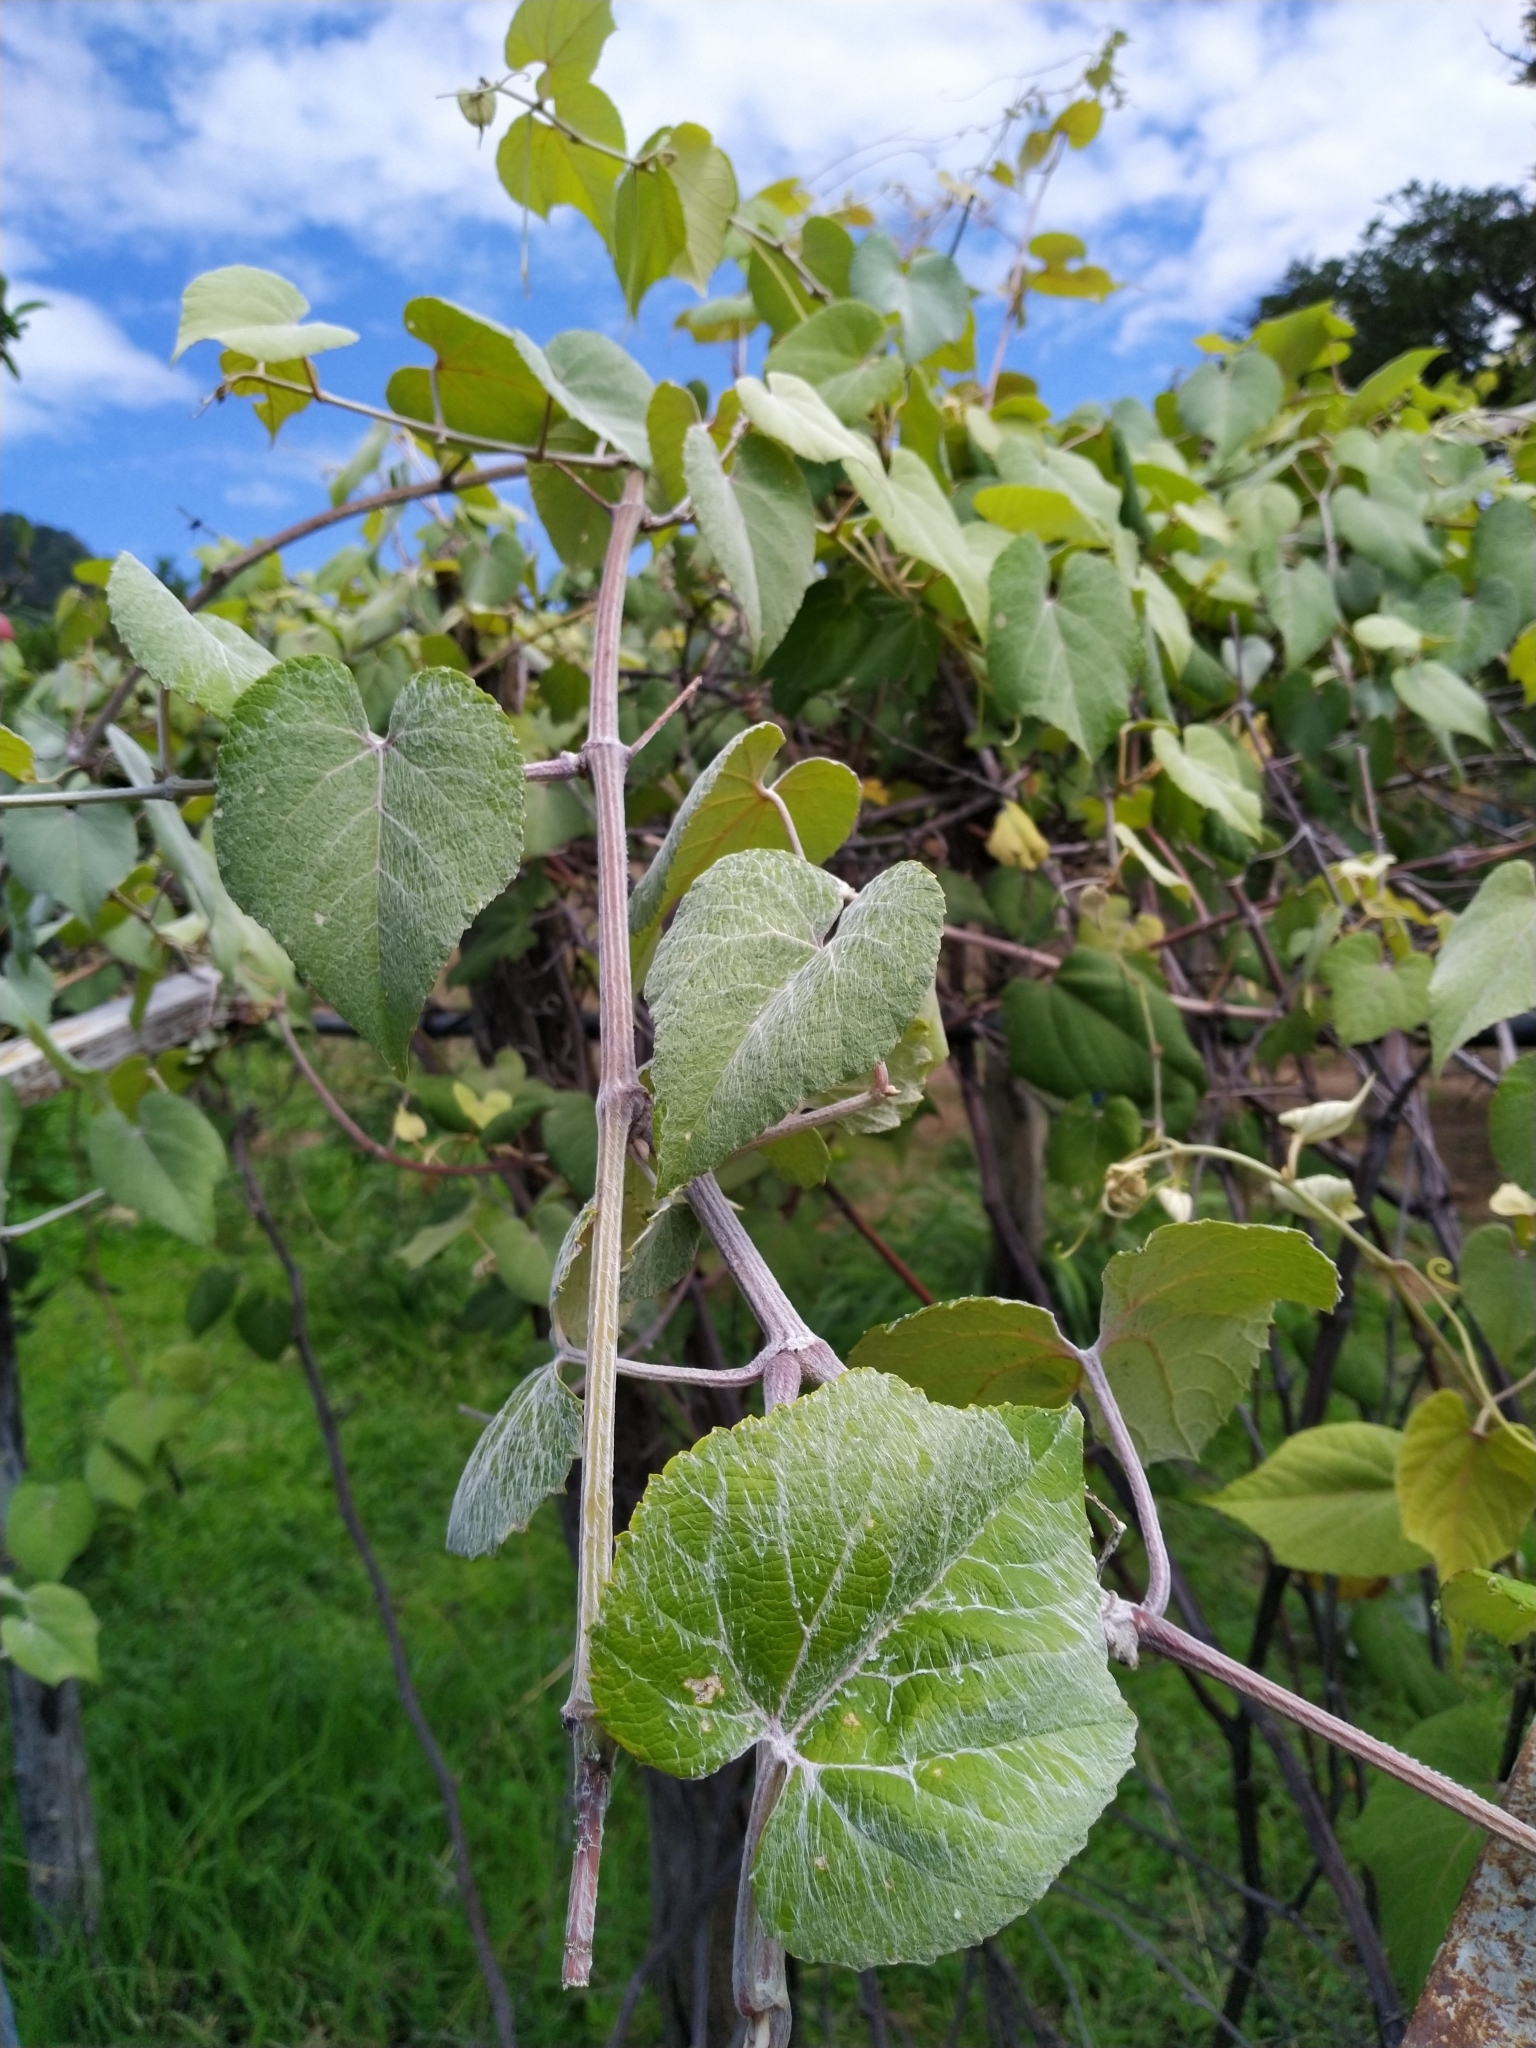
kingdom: Plantae
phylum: Tracheophyta
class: Magnoliopsida
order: Vitales
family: Vitaceae
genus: Vitis
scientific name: Vitis tiliifolia
